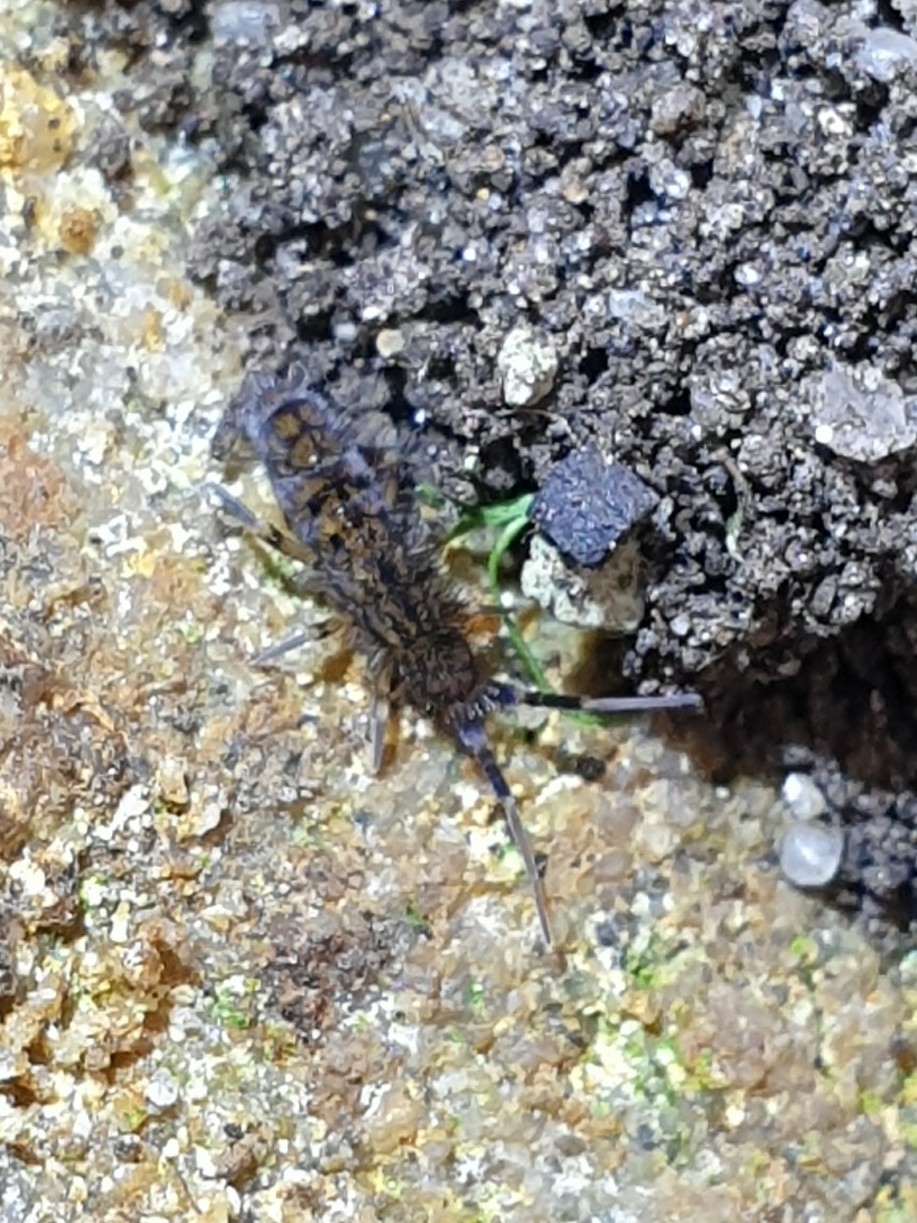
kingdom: Animalia
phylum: Arthropoda
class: Collembola
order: Entomobryomorpha
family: Orchesellidae
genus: Orchesella
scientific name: Orchesella villosa
